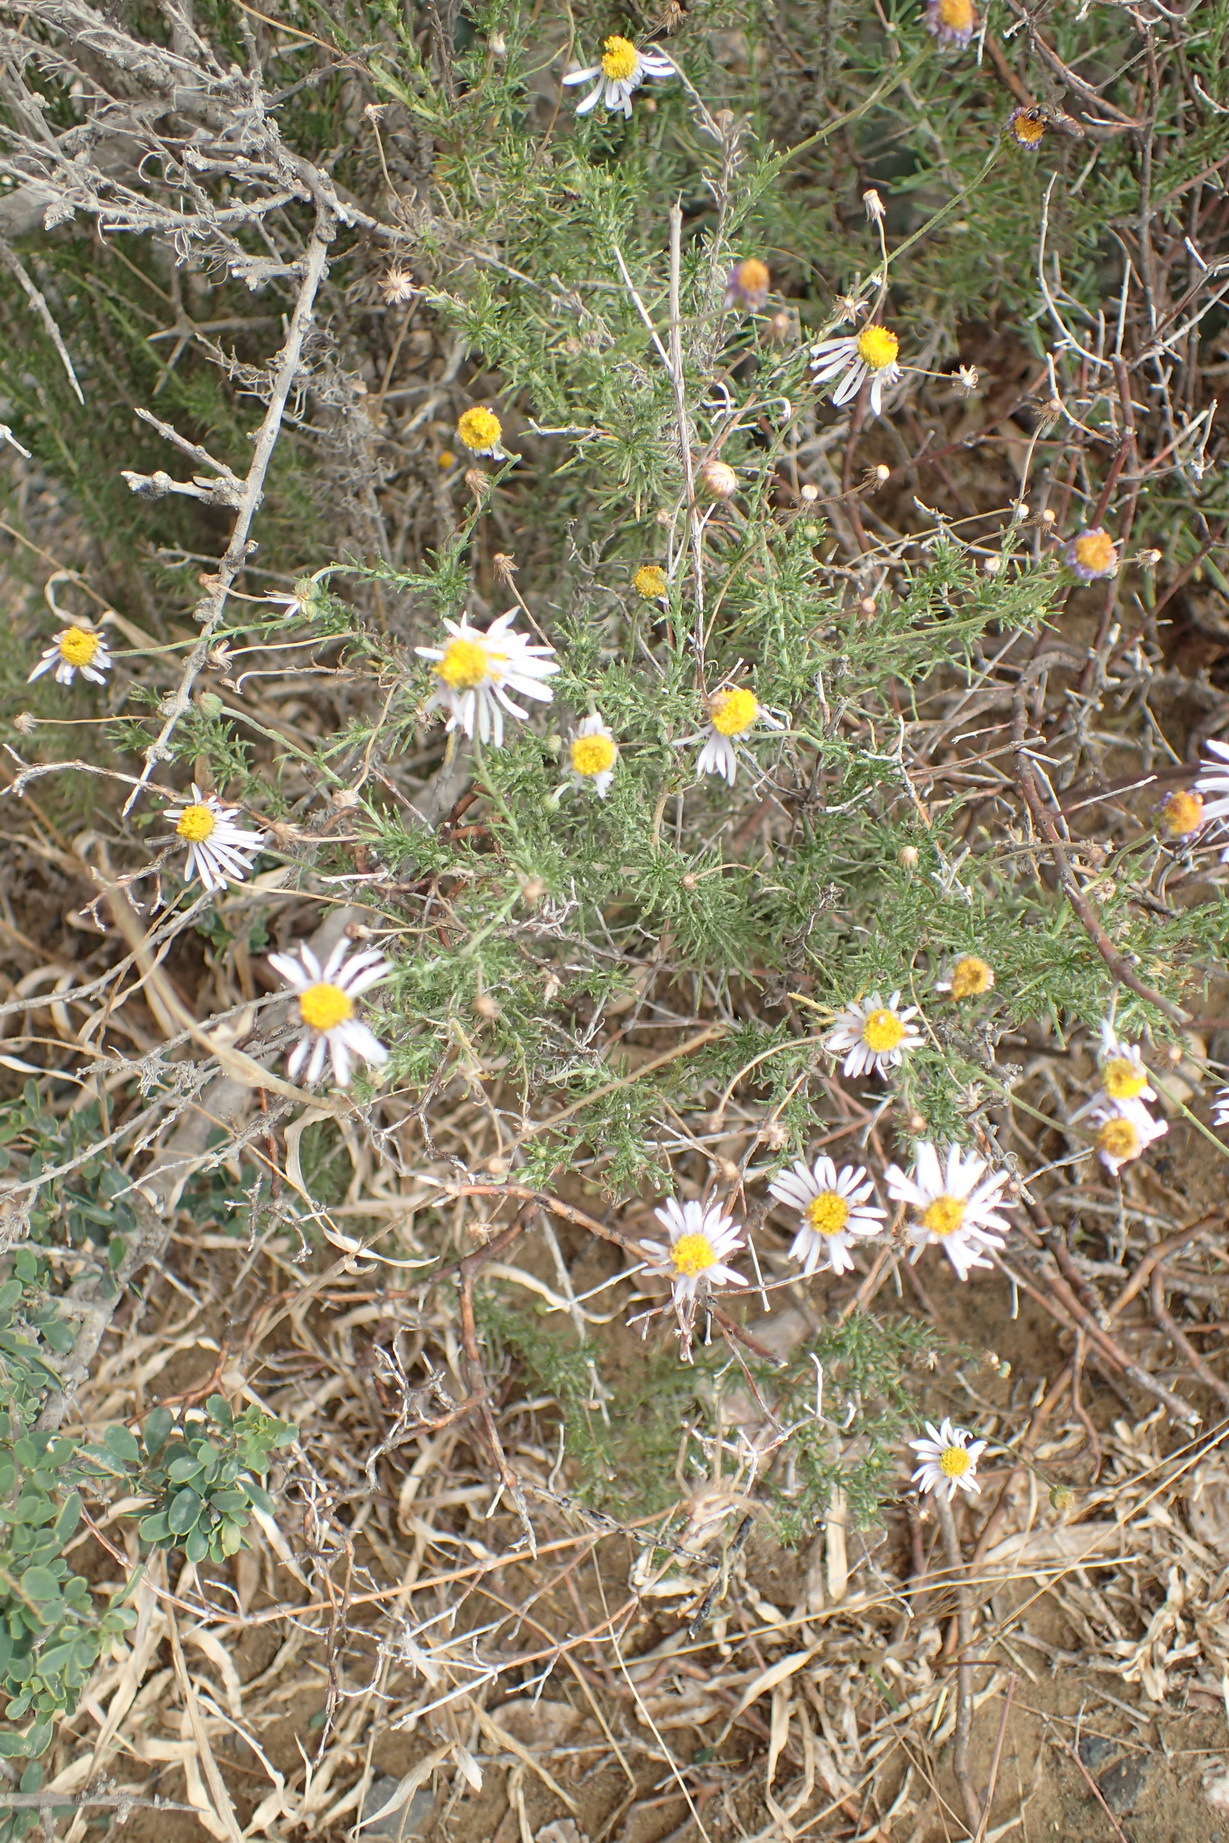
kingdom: Plantae
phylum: Tracheophyta
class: Magnoliopsida
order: Asterales
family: Asteraceae
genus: Felicia
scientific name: Felicia muricata
